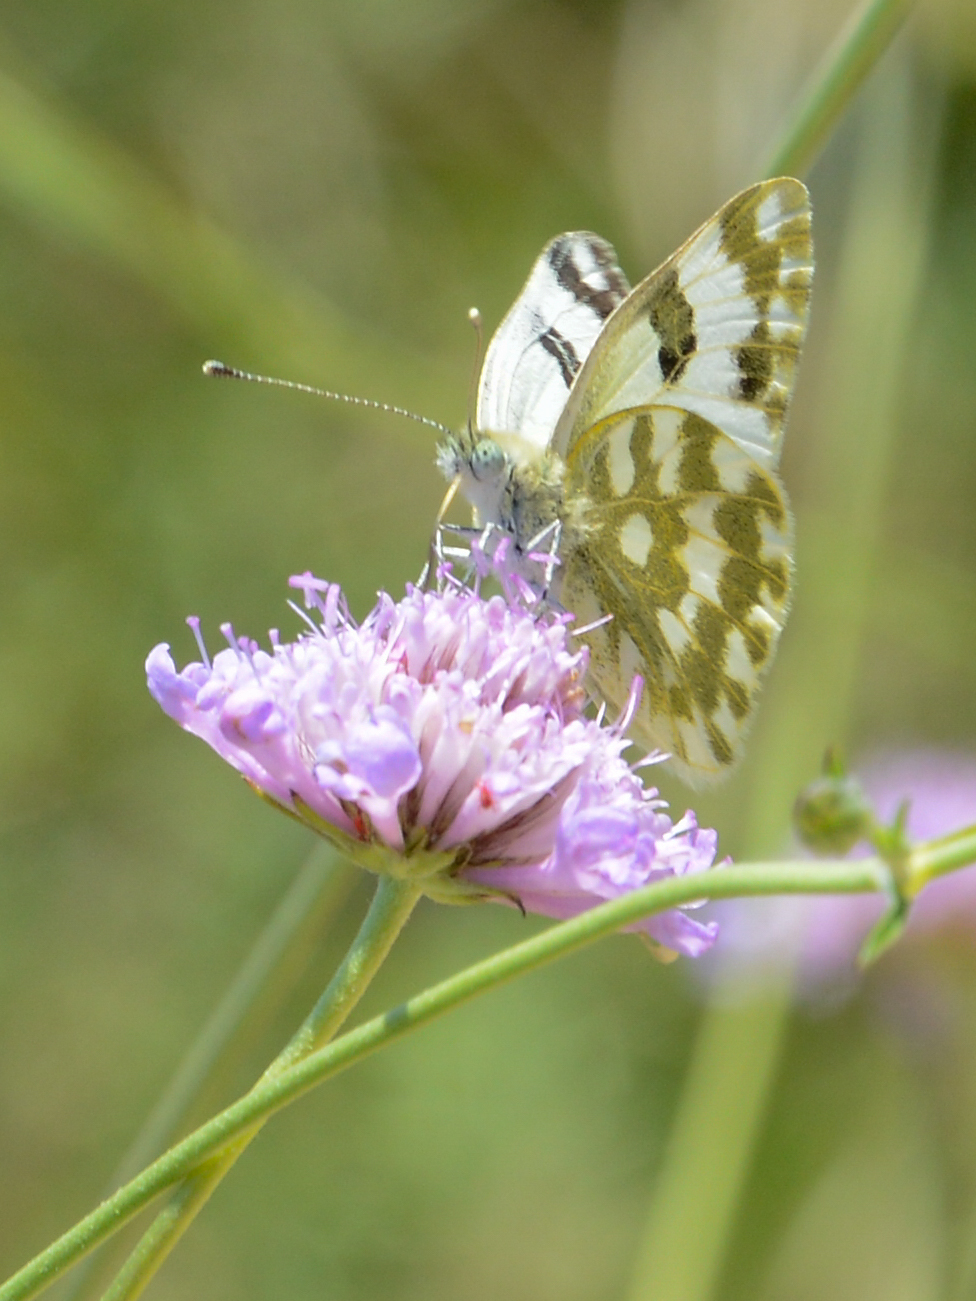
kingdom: Animalia
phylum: Arthropoda
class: Insecta
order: Lepidoptera
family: Pieridae
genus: Pontia
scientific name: Pontia edusa
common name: Eastern bath white
